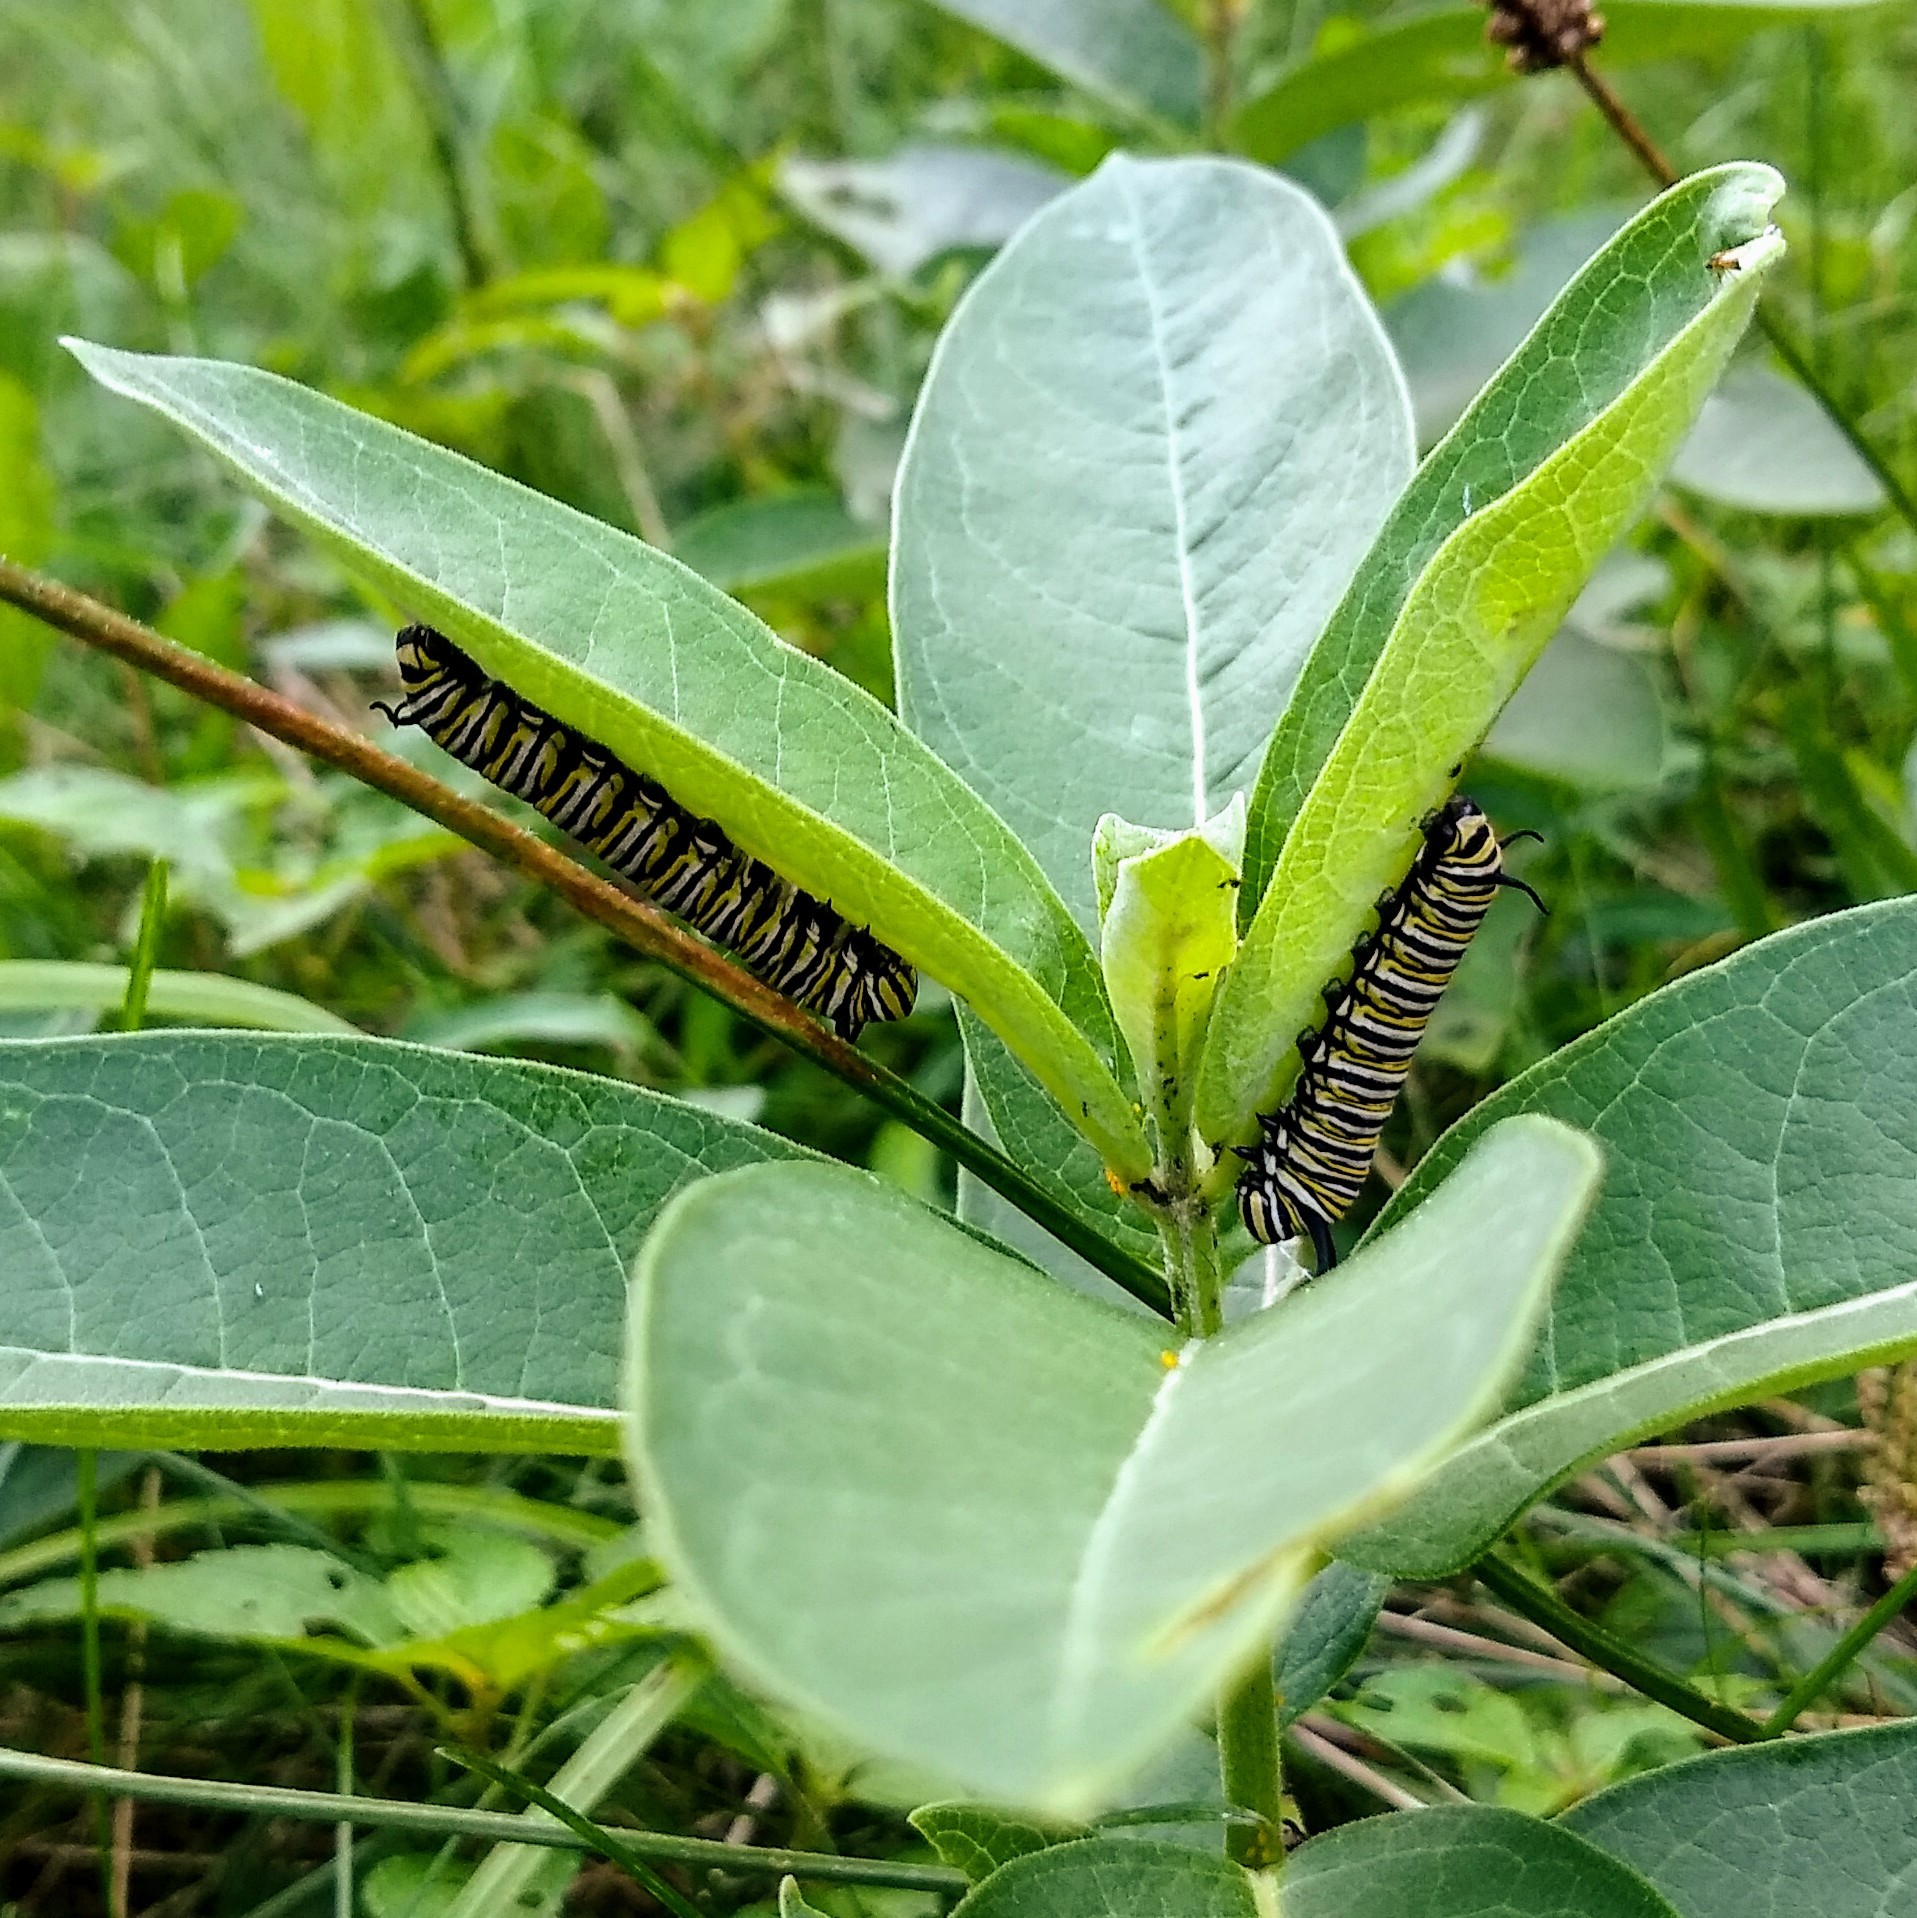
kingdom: Animalia
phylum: Arthropoda
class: Insecta
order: Lepidoptera
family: Nymphalidae
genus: Danaus
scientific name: Danaus plexippus
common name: Monarch
